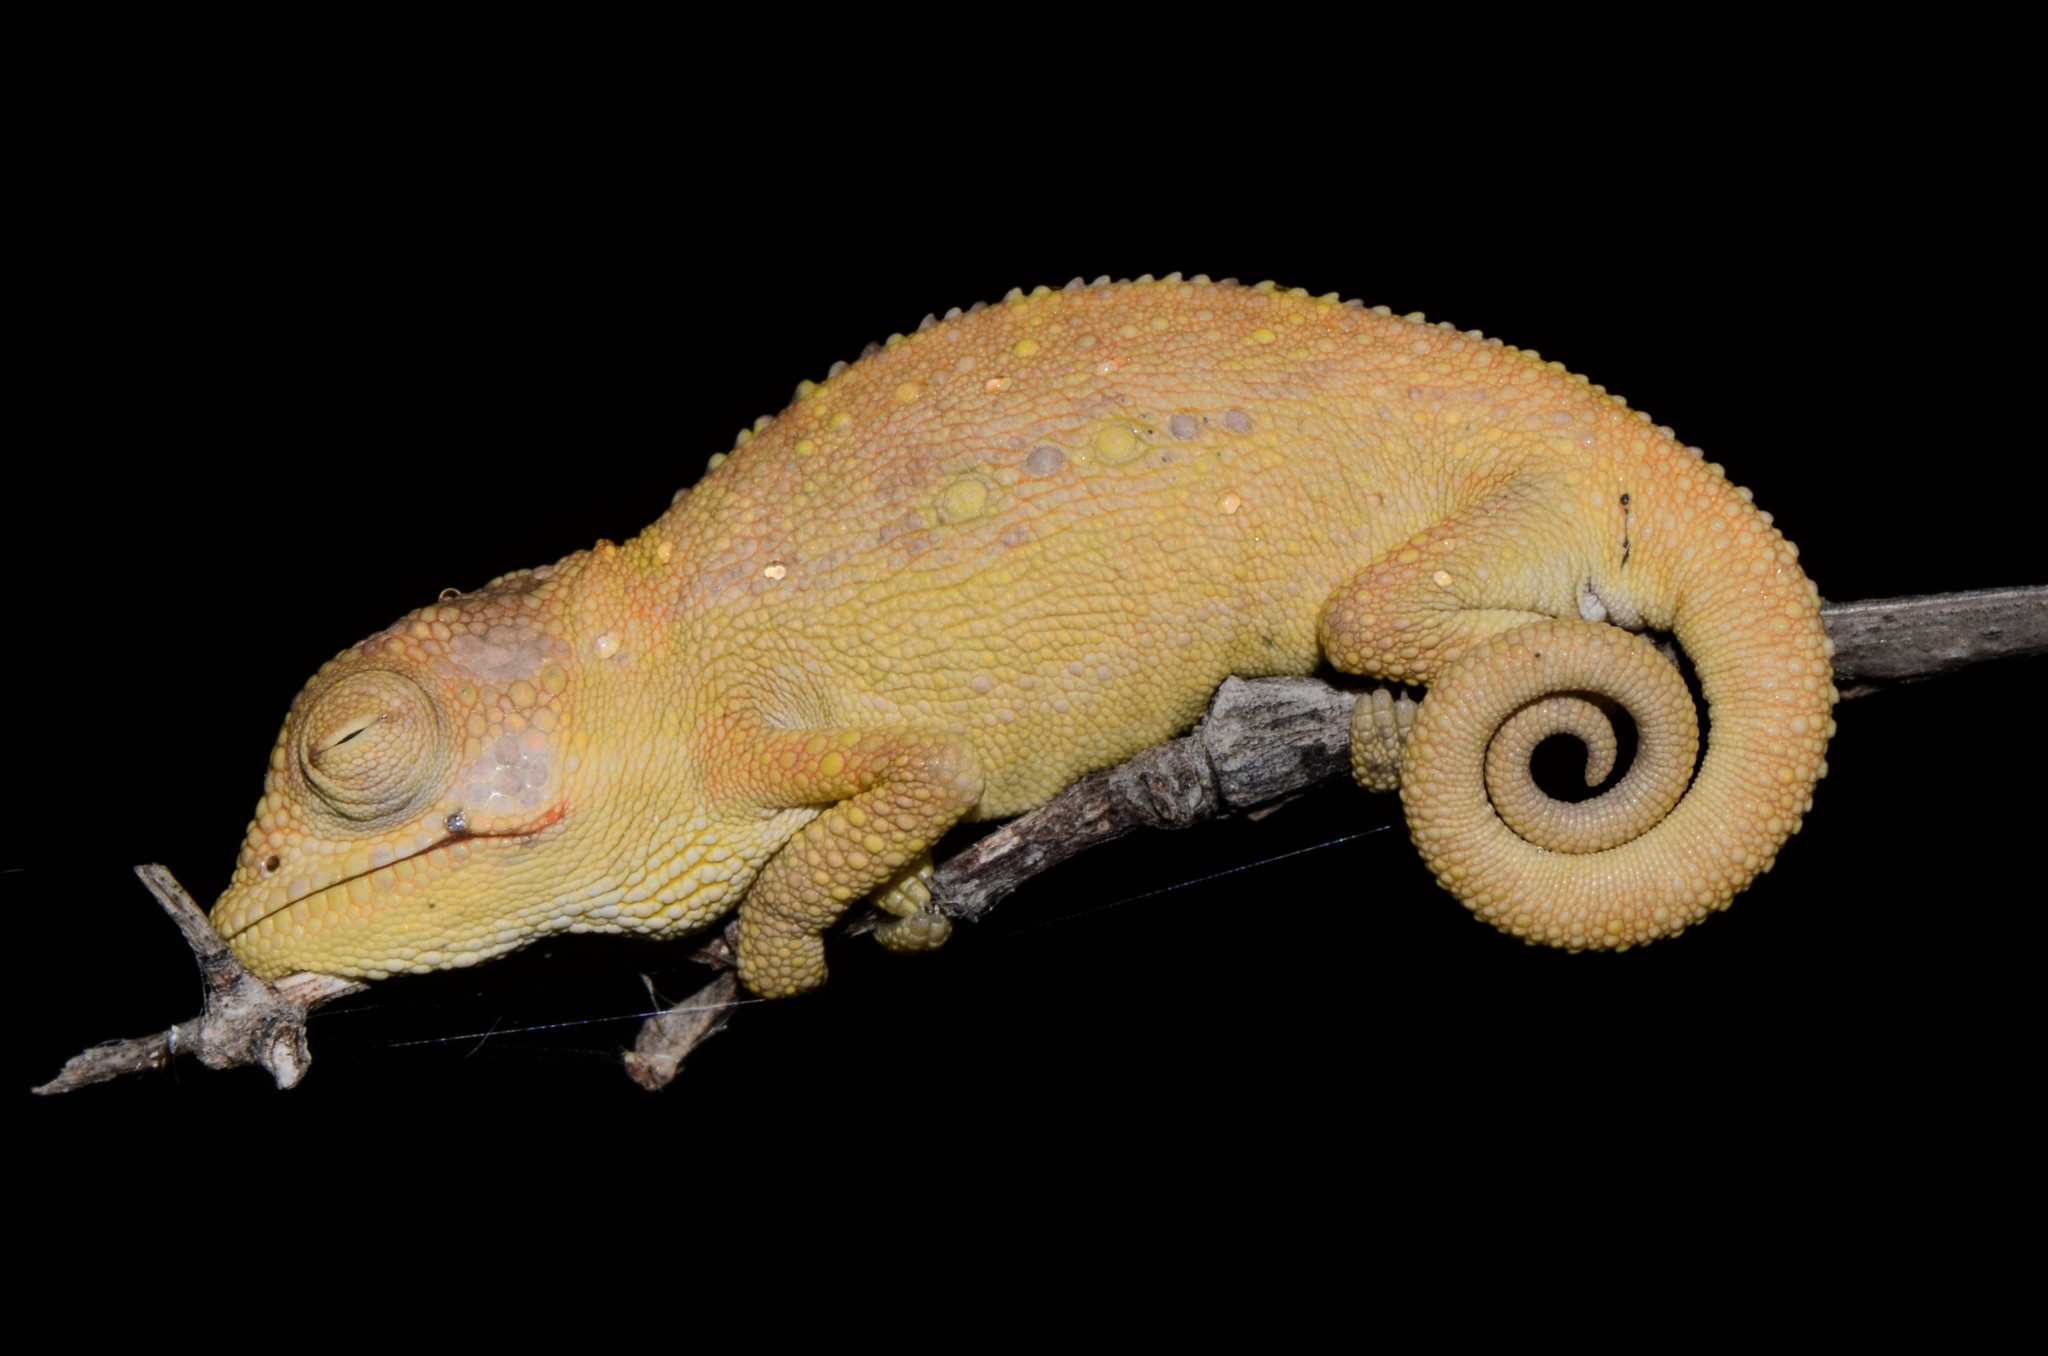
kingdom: Animalia
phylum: Chordata
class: Squamata
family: Chamaeleonidae
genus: Bradypodion
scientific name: Bradypodion pumilum
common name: Cape dwarf chameleon
